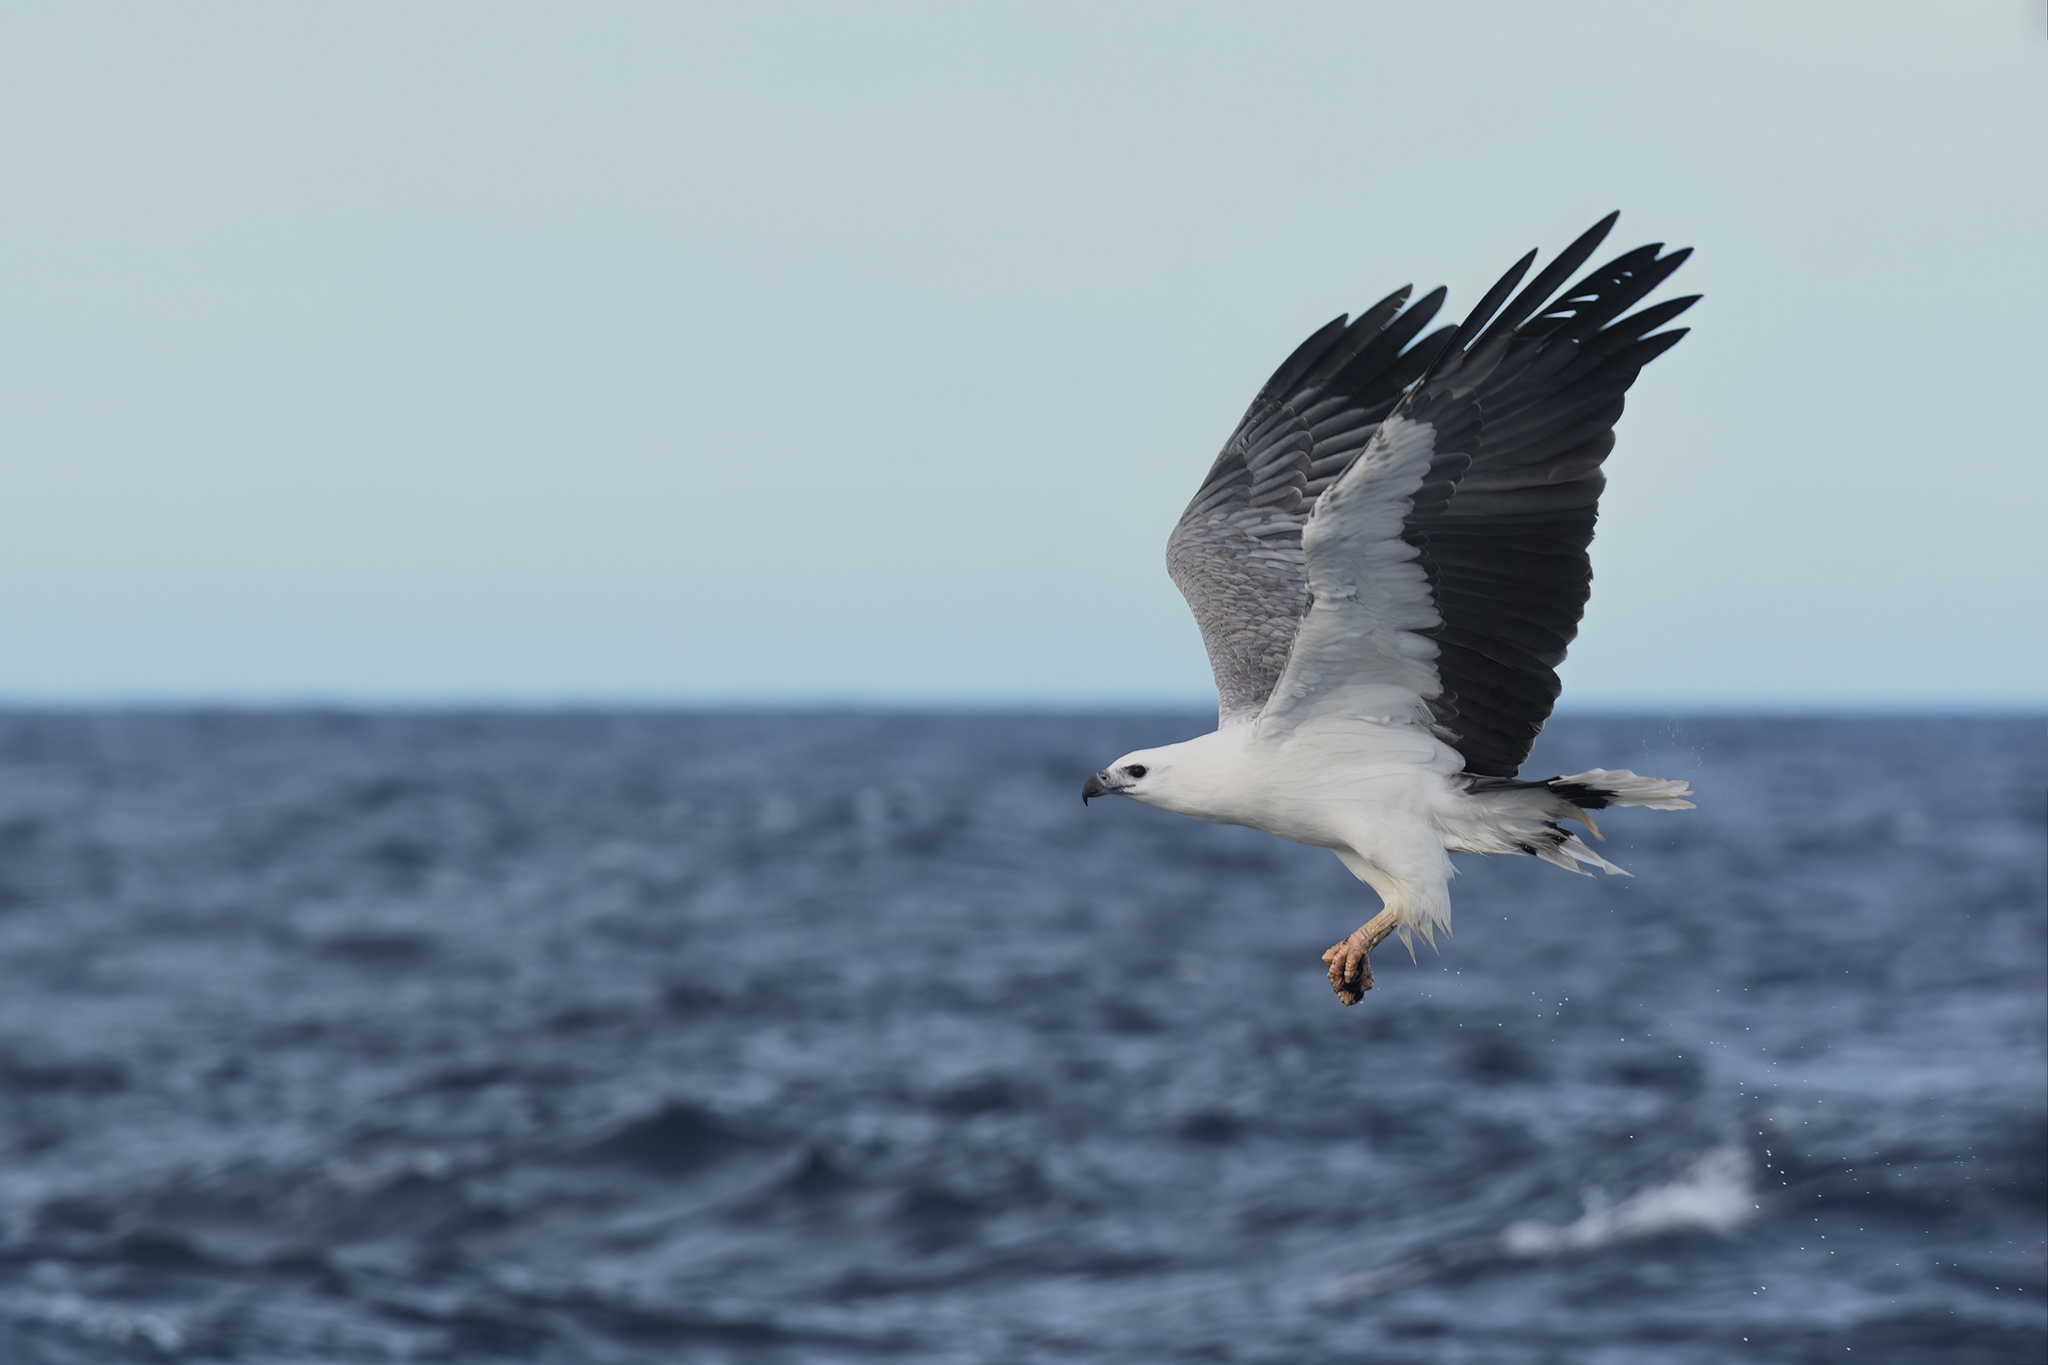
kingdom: Animalia
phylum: Chordata
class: Aves
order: Accipitriformes
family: Accipitridae
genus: Haliaeetus
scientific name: Haliaeetus leucogaster
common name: White-bellied sea eagle
